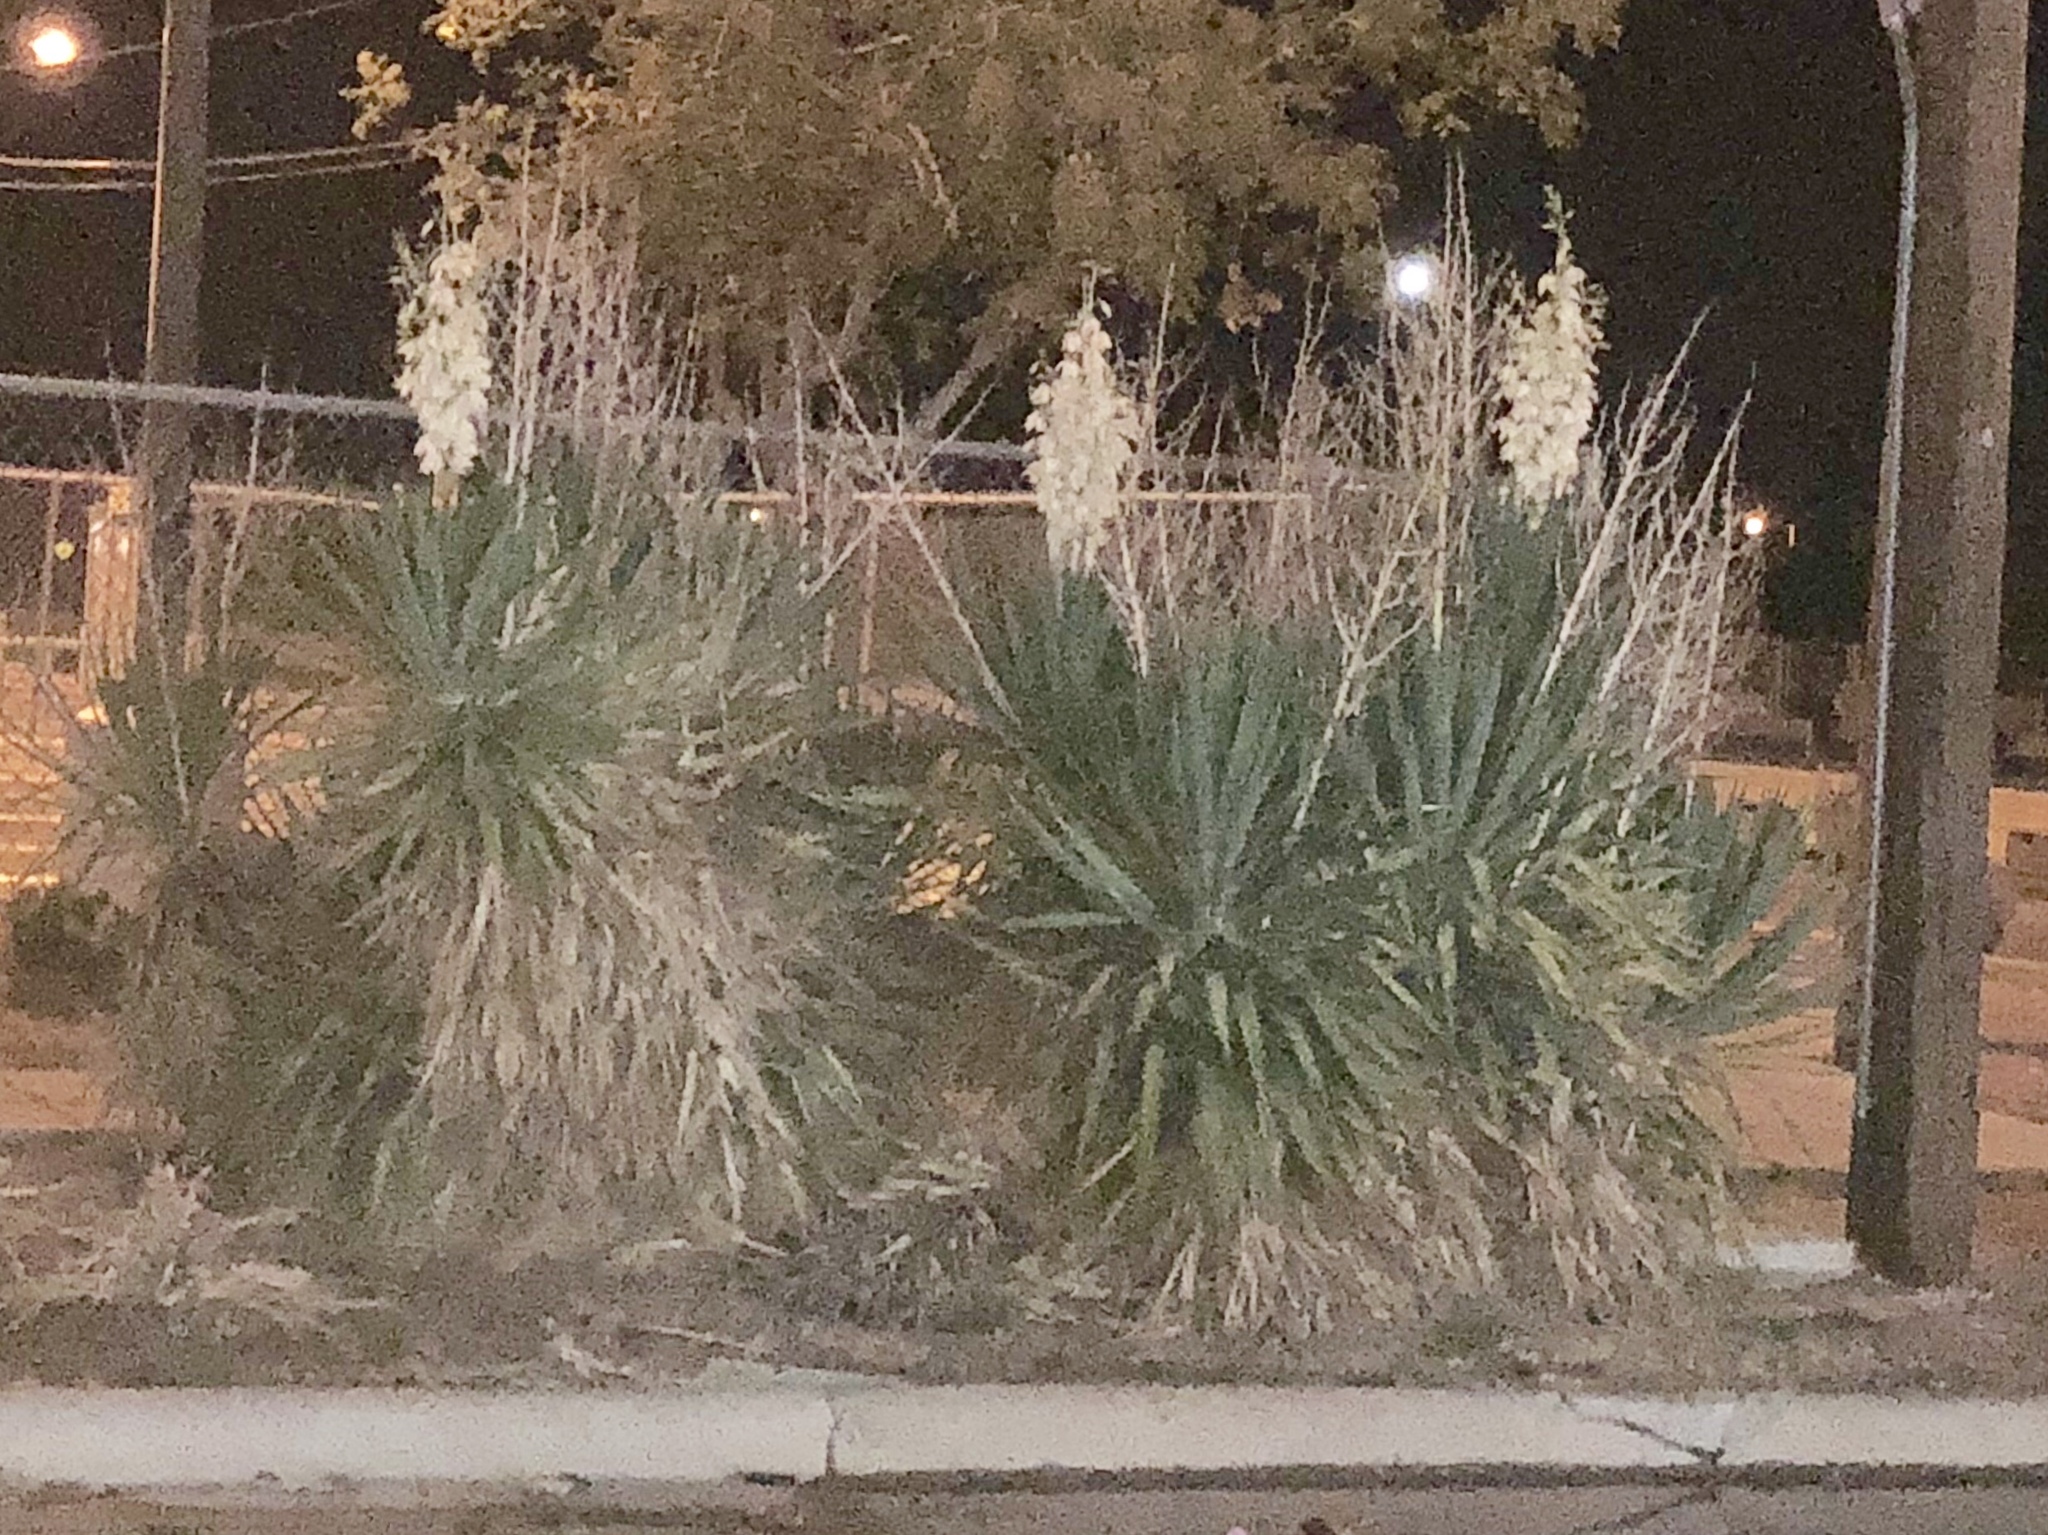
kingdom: Plantae
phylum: Tracheophyta
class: Liliopsida
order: Asparagales
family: Asparagaceae
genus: Yucca
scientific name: Yucca treculiana
